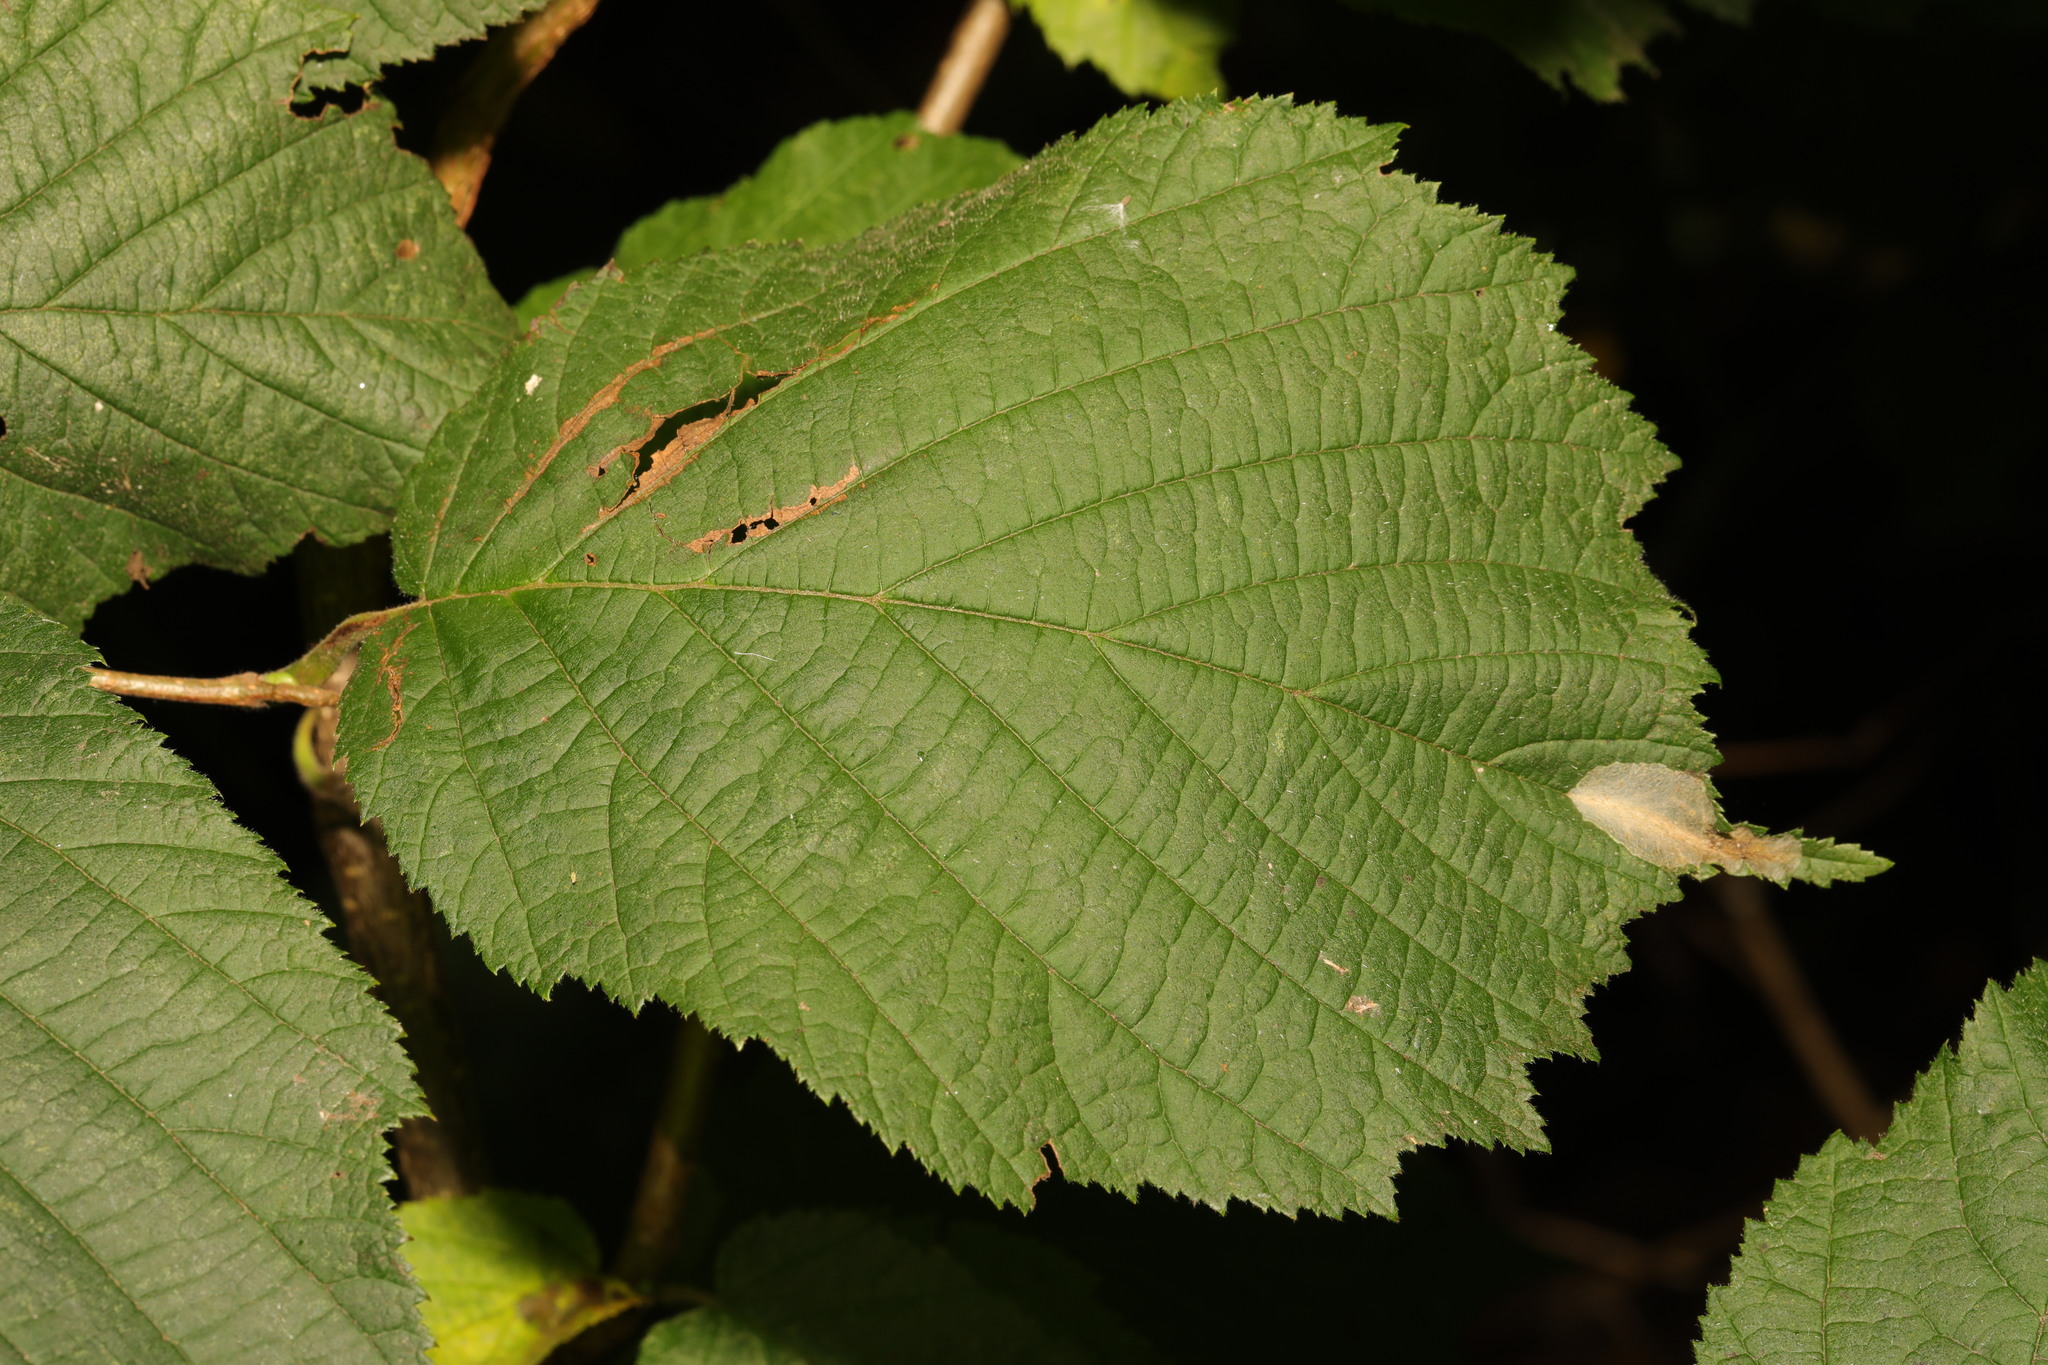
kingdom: Plantae
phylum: Tracheophyta
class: Magnoliopsida
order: Fagales
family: Betulaceae
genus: Corylus
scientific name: Corylus avellana
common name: European hazel
